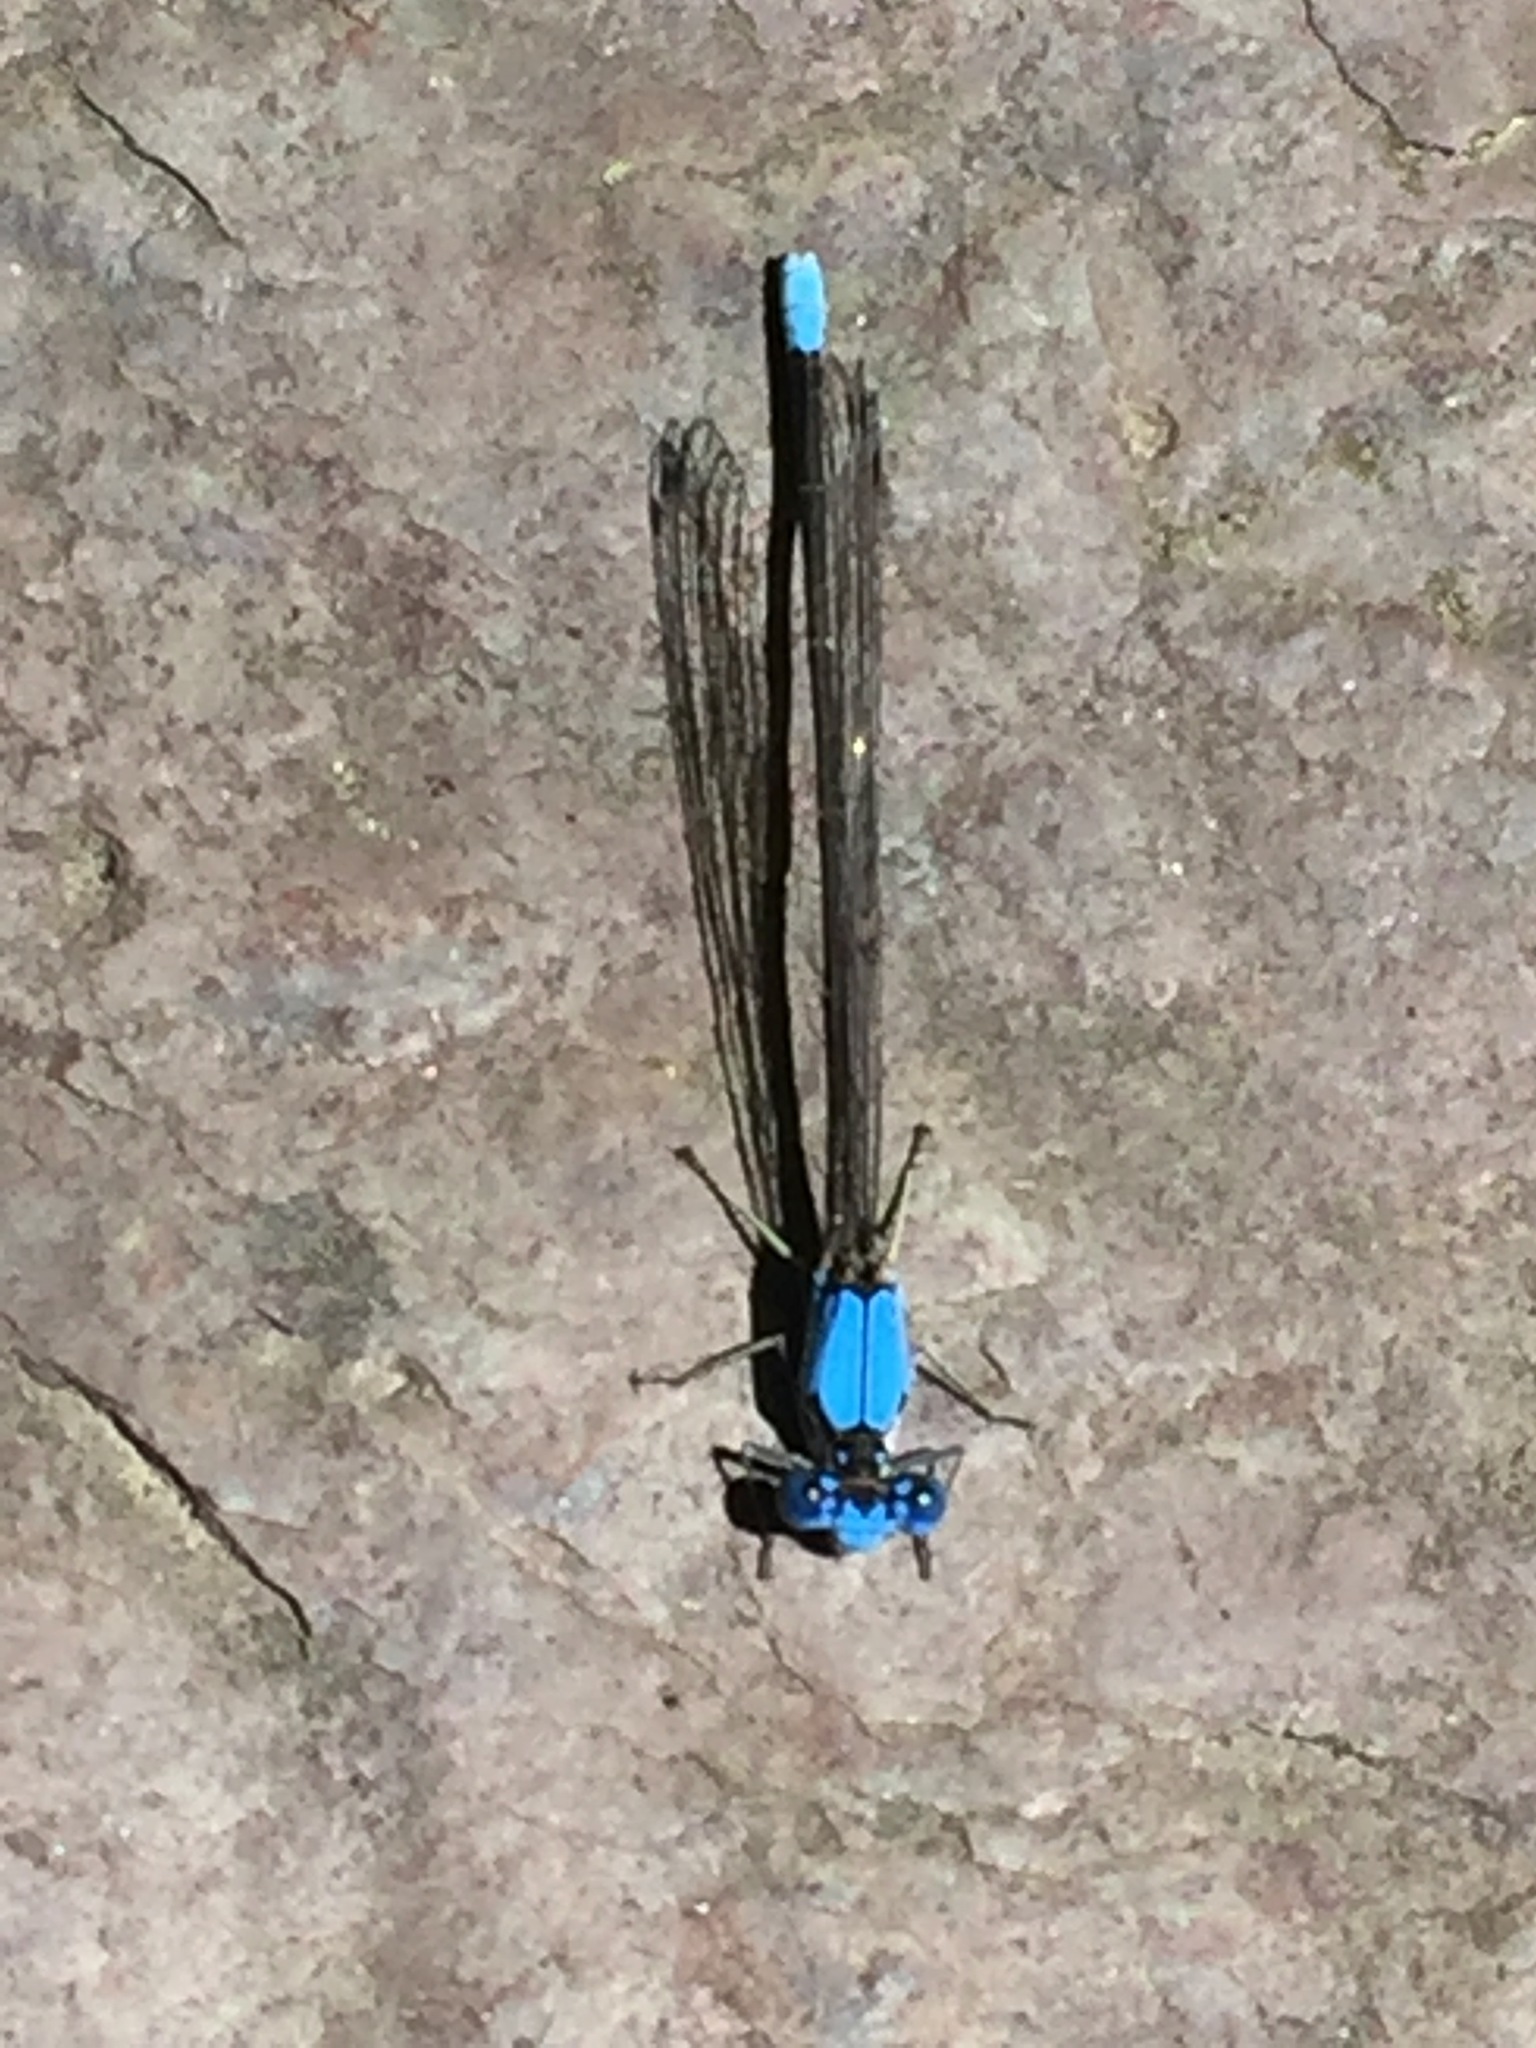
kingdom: Animalia
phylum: Arthropoda
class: Insecta
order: Odonata
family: Coenagrionidae
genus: Argia
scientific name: Argia apicalis
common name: Blue-fronted dancer
